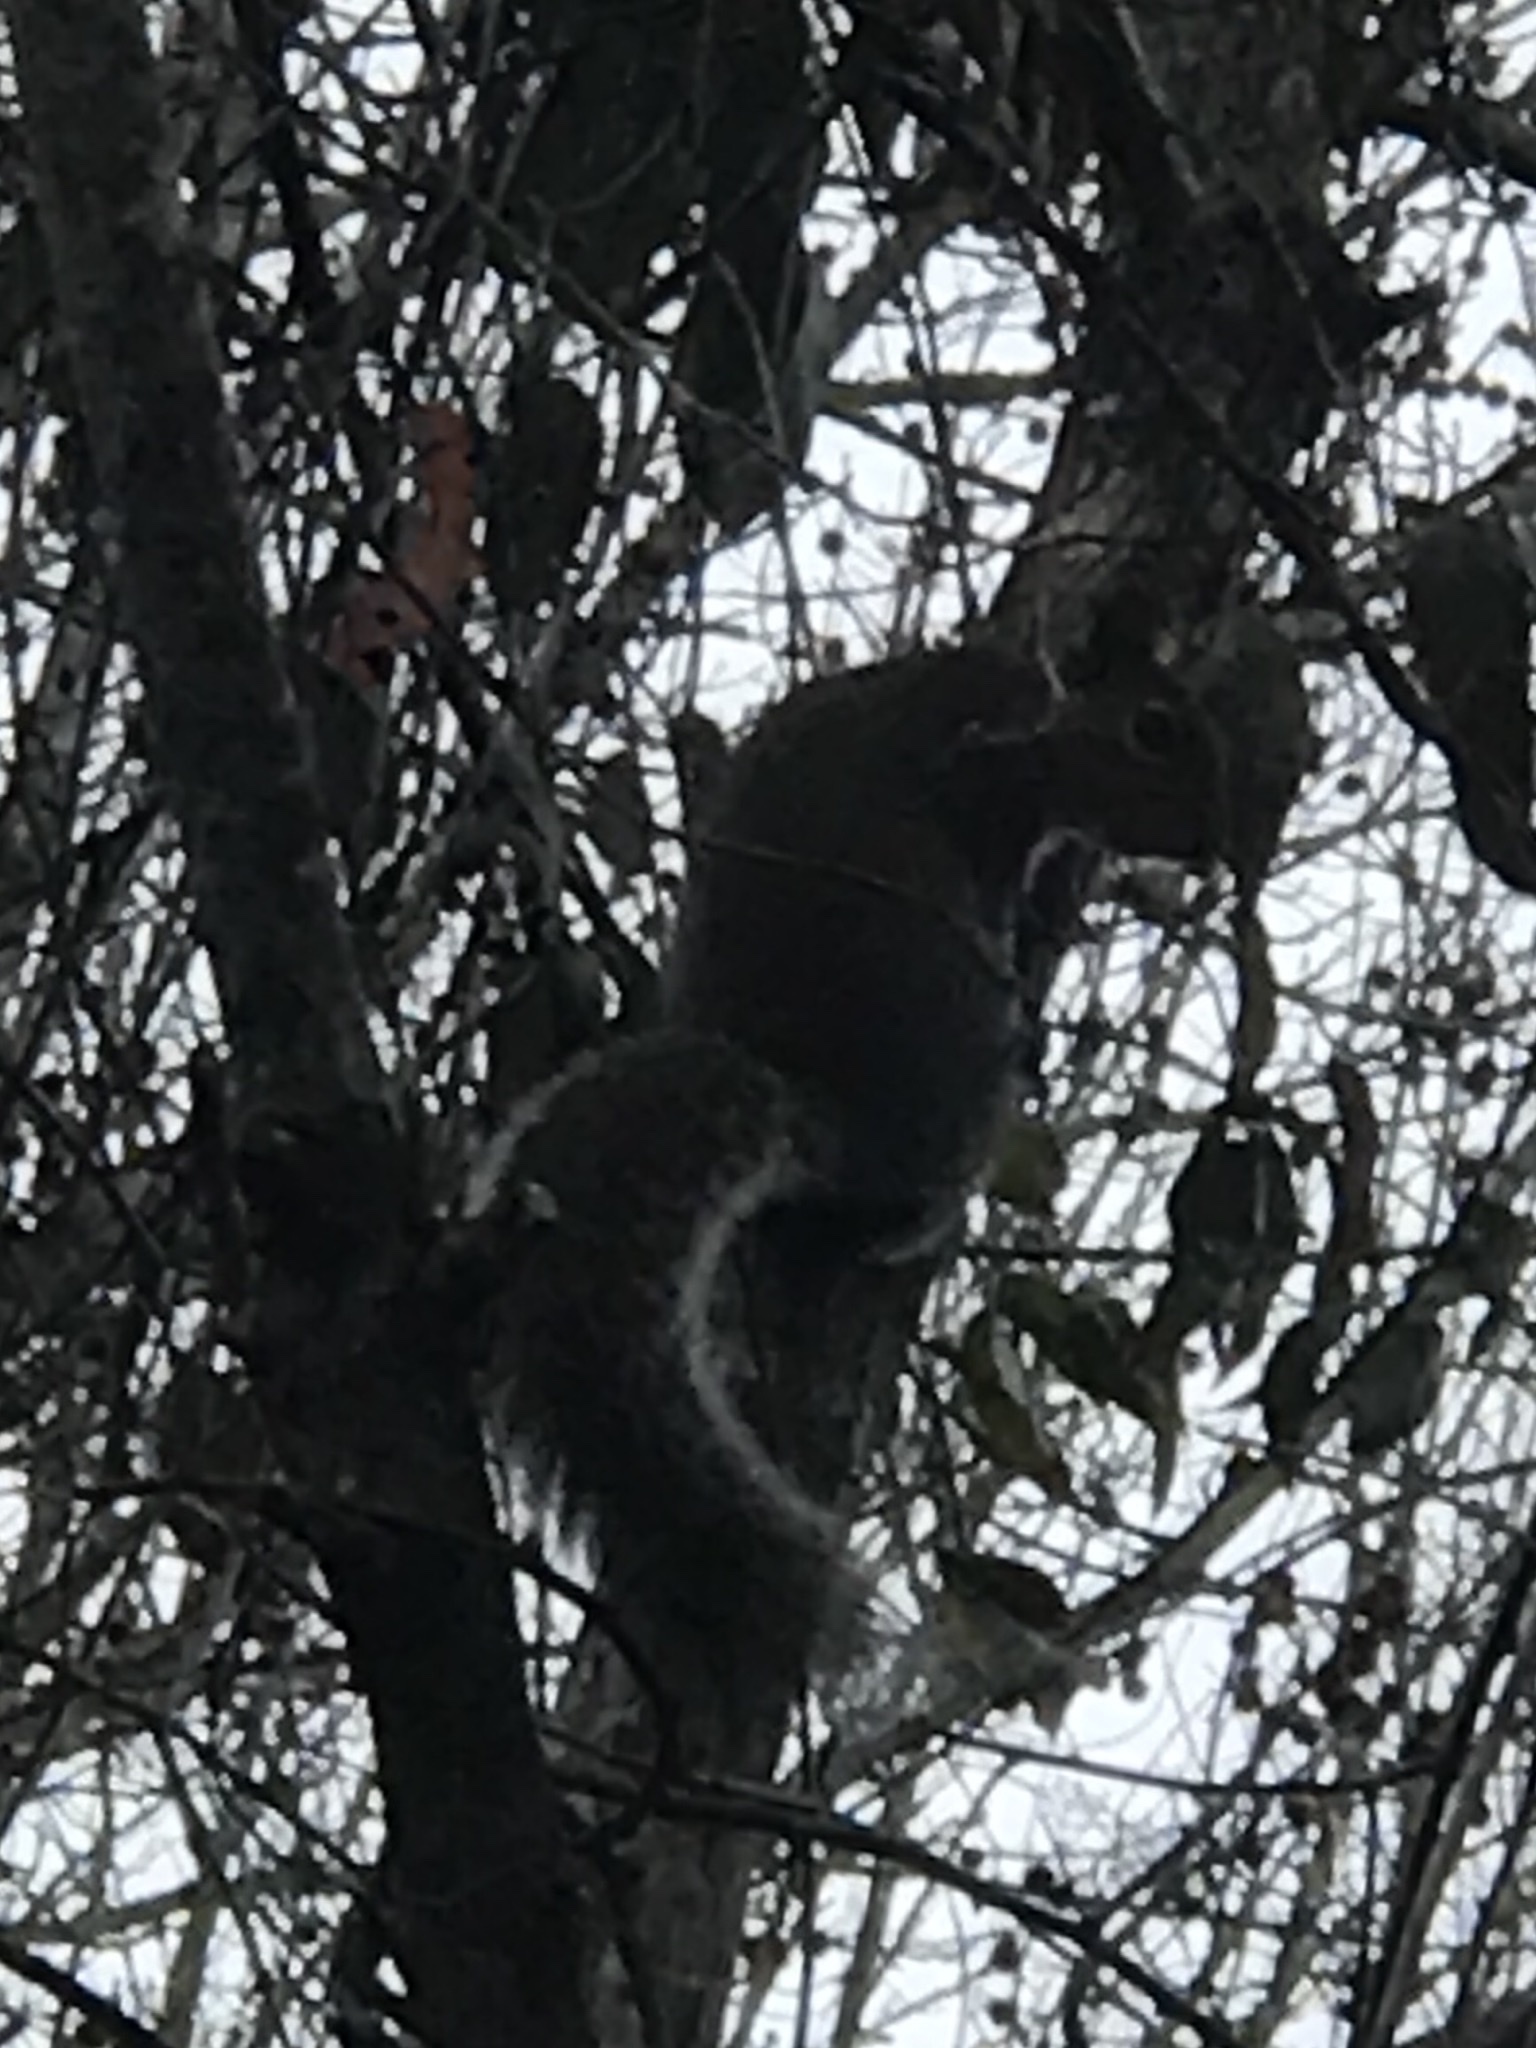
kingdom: Animalia
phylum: Chordata
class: Mammalia
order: Rodentia
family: Sciuridae
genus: Sciurus
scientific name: Sciurus carolinensis
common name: Eastern gray squirrel
